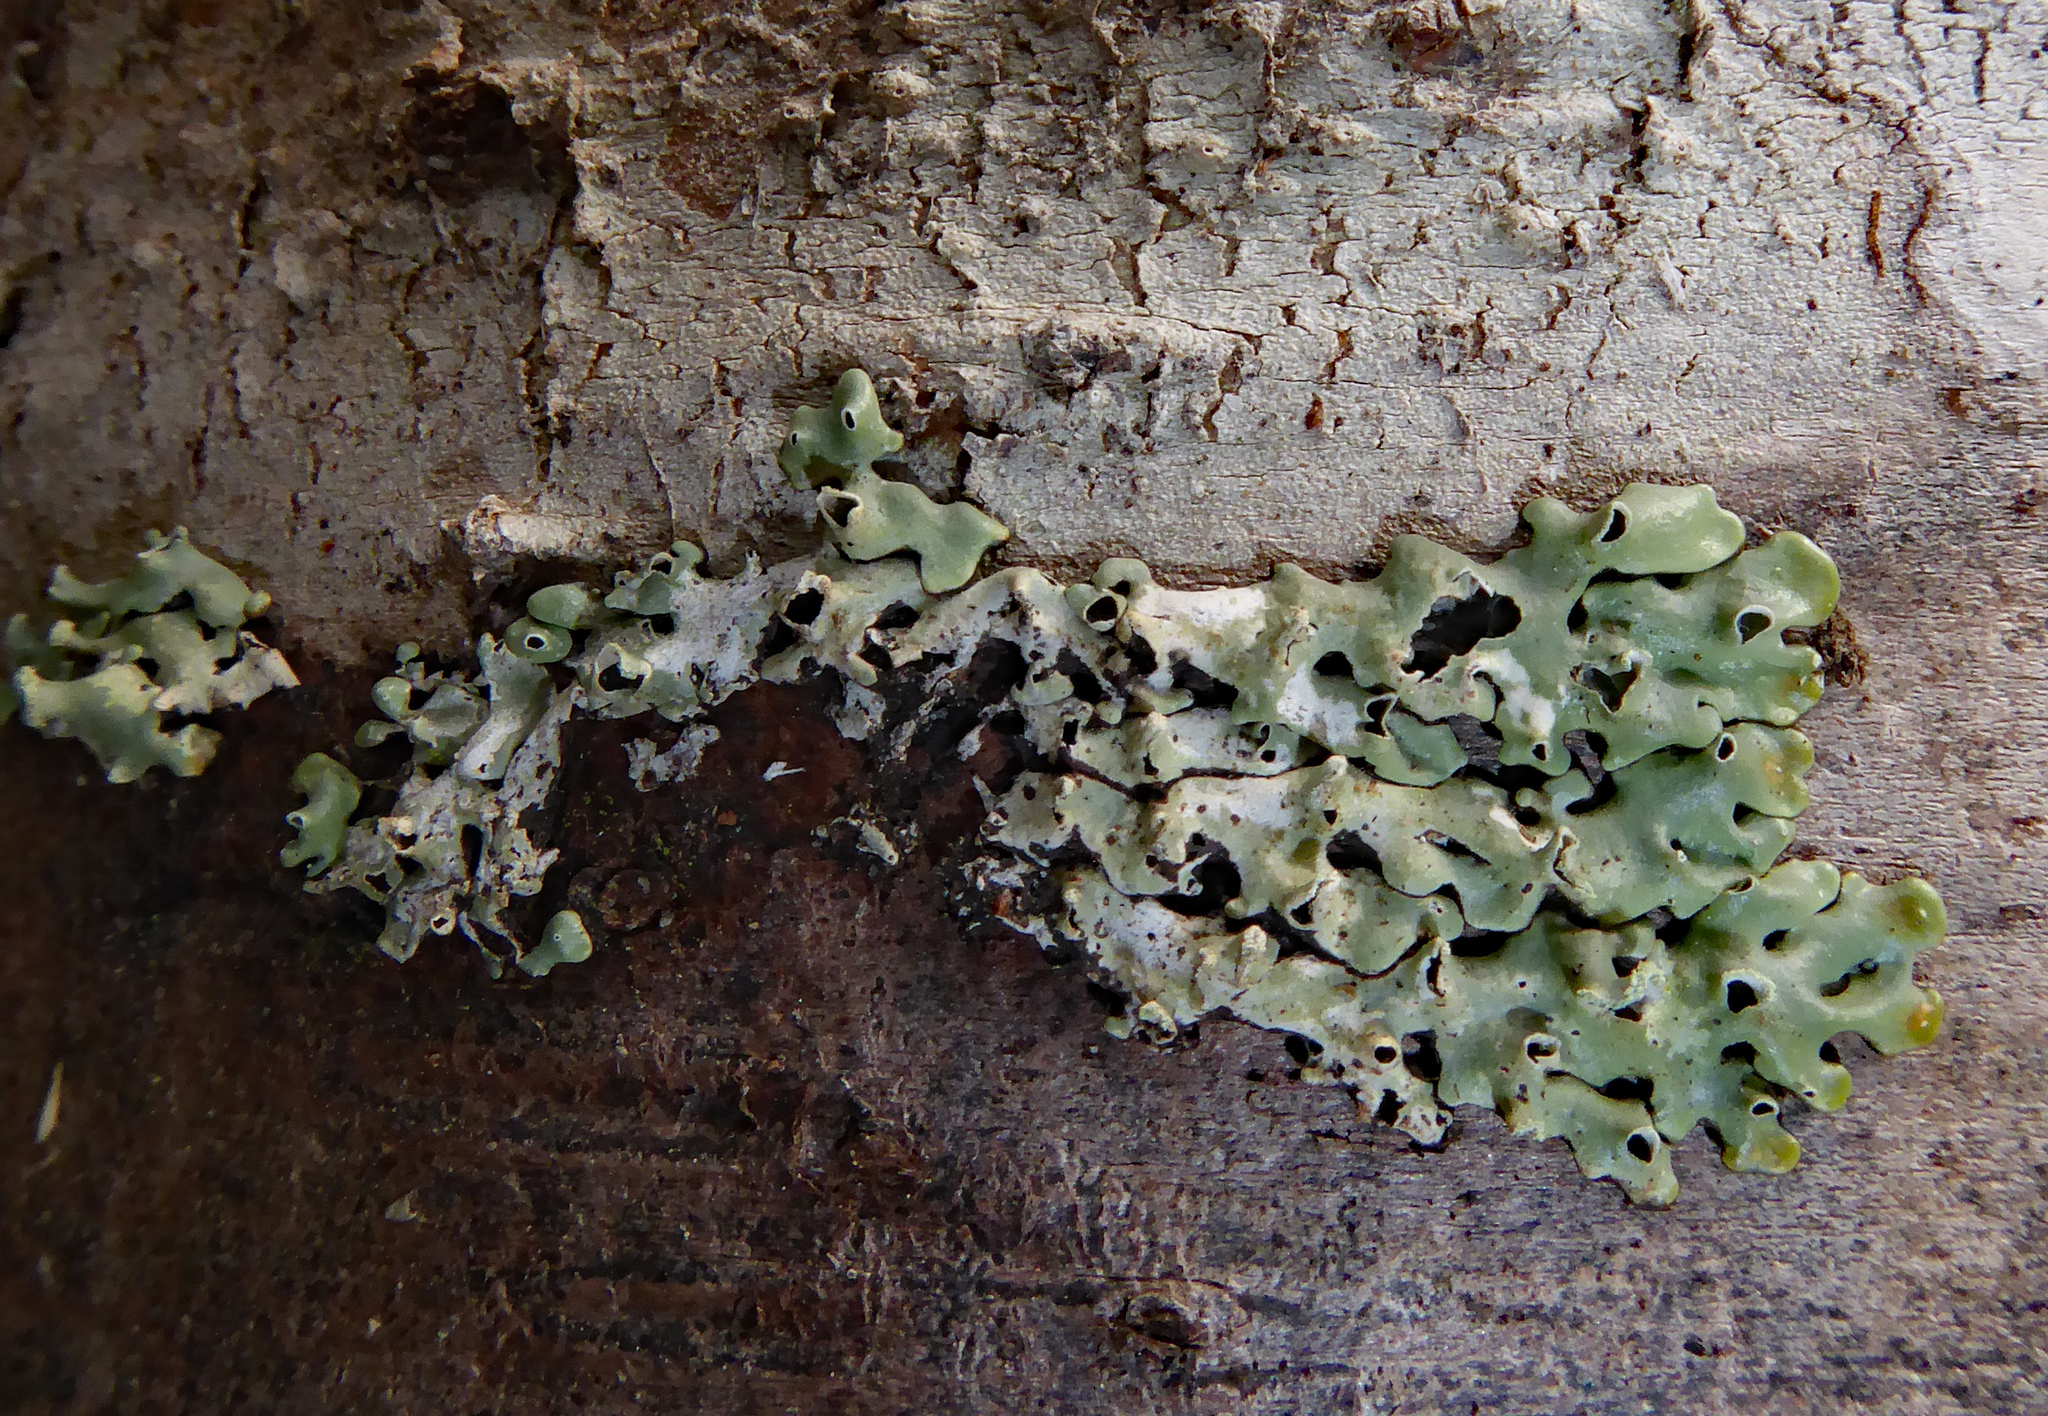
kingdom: Fungi
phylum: Ascomycota
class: Lecanoromycetes
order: Lecanorales
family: Parmeliaceae
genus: Menegazzia
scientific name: Menegazzia neozelandica
